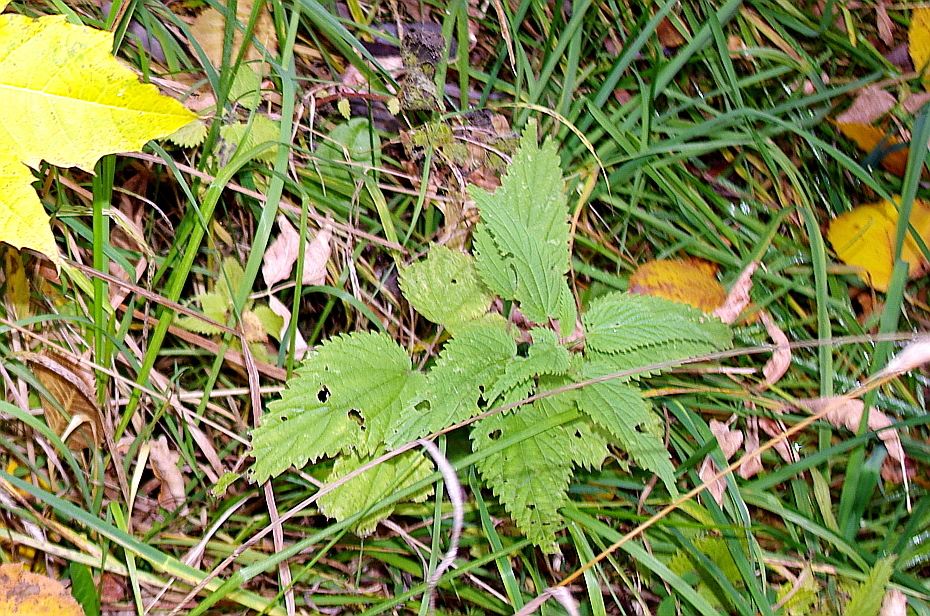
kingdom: Plantae
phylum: Tracheophyta
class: Magnoliopsida
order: Rosales
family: Urticaceae
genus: Urtica
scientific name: Urtica dioica
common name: Common nettle
